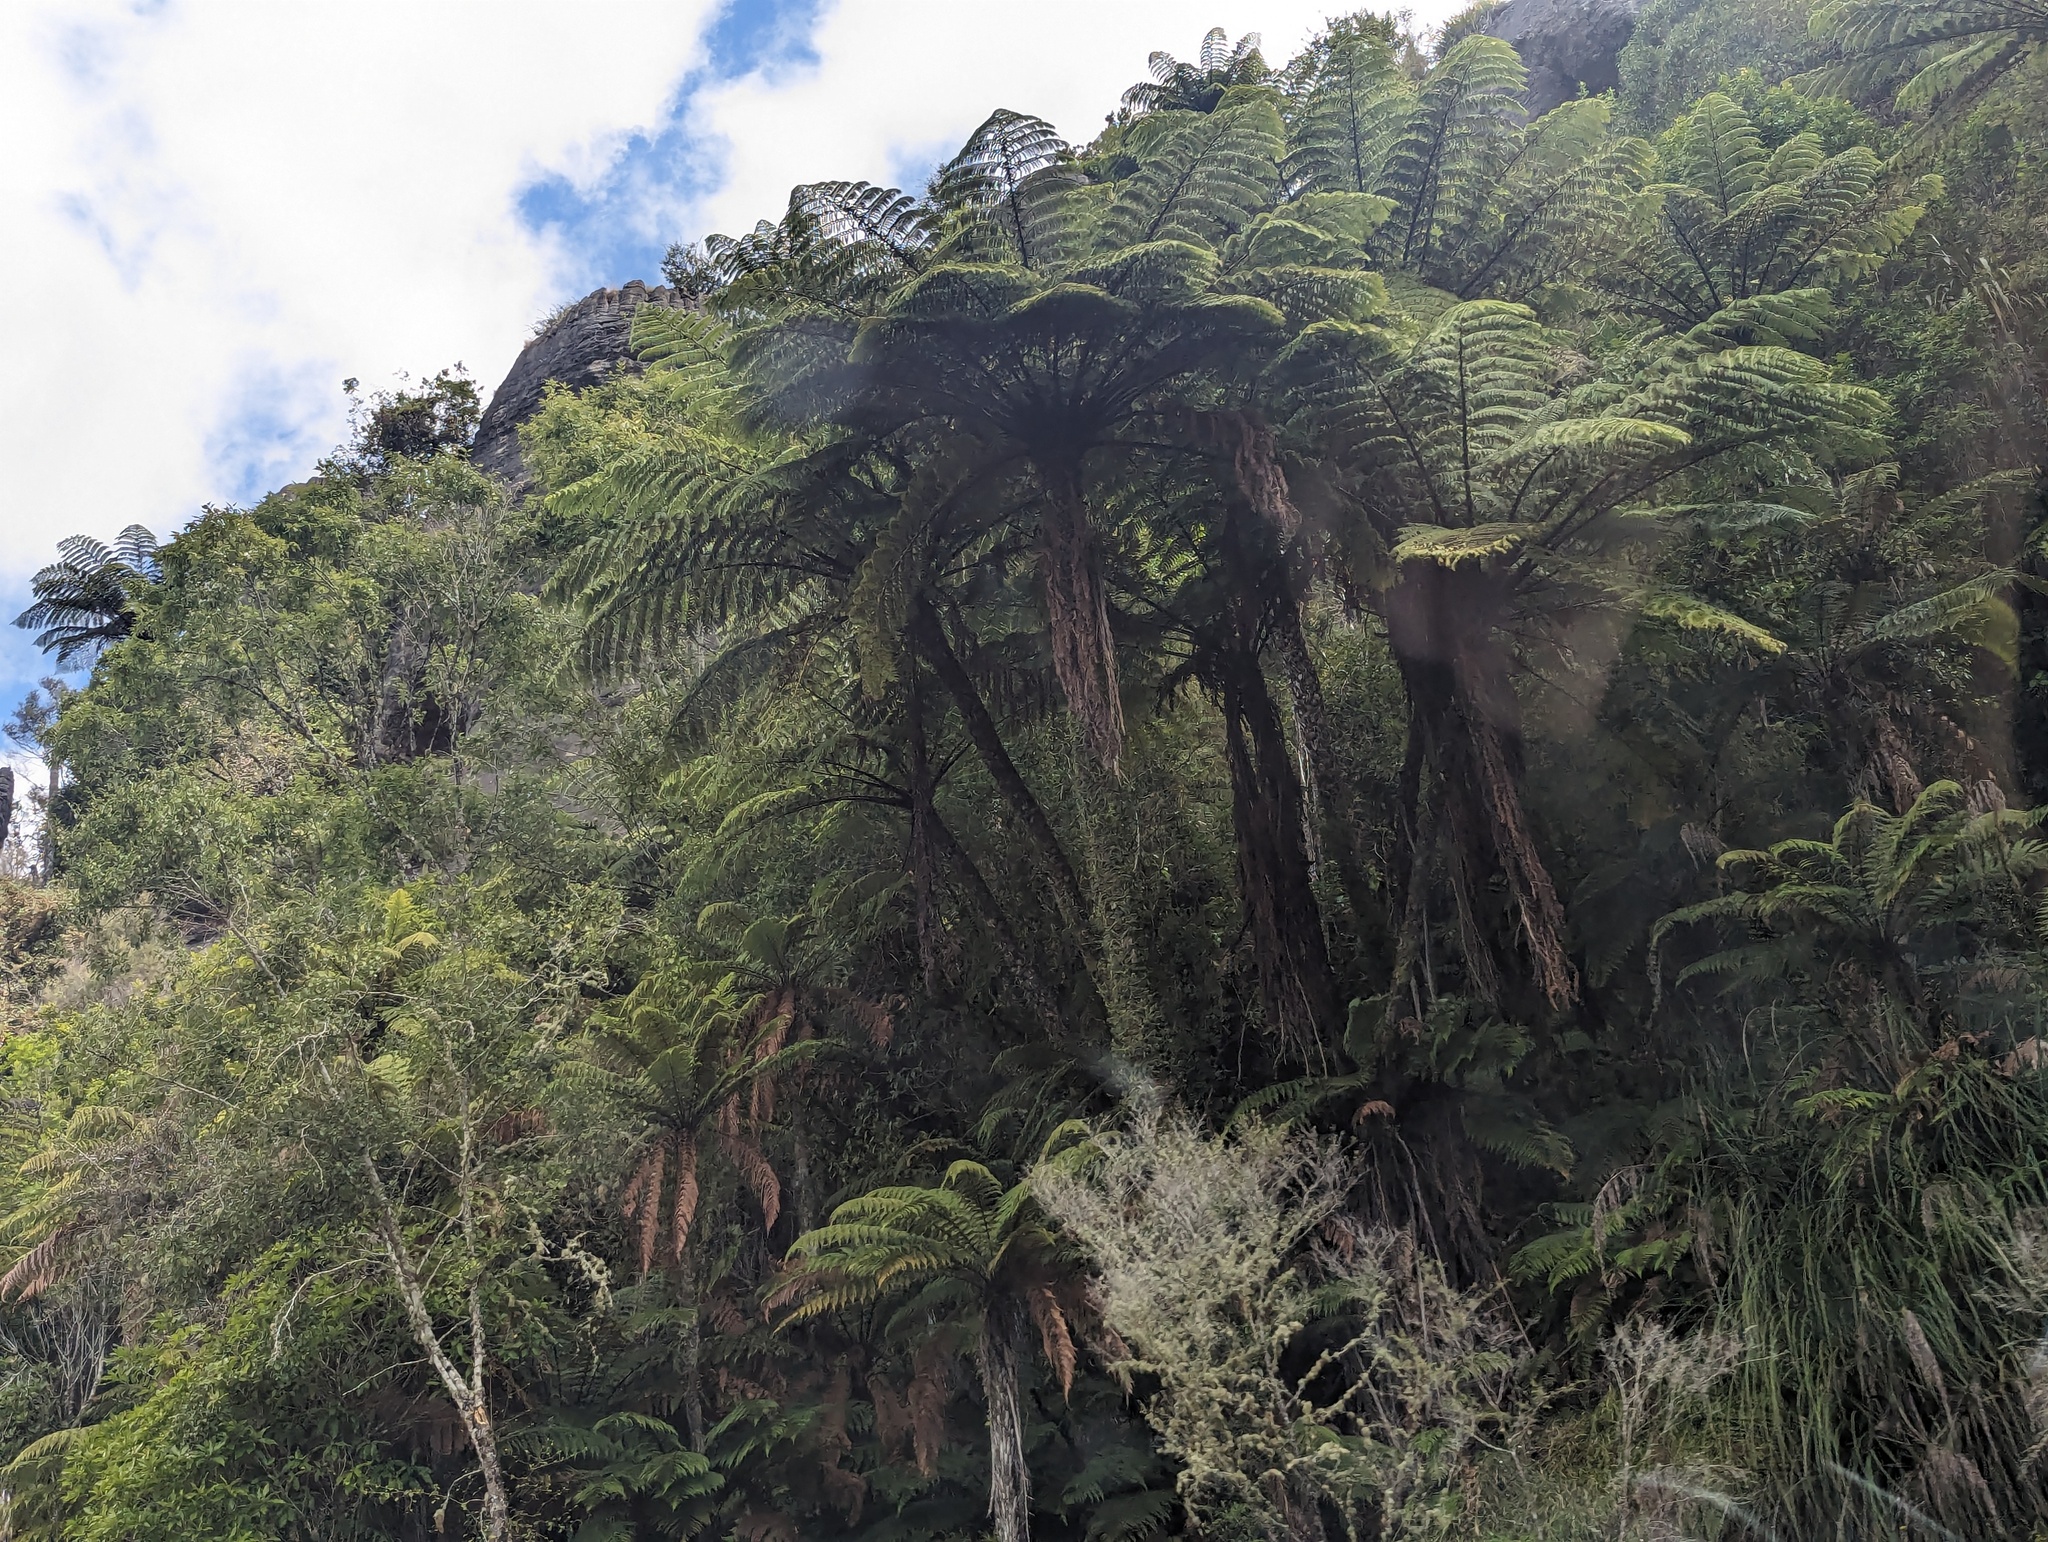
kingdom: Plantae
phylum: Tracheophyta
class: Polypodiopsida
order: Cyatheales
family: Cyatheaceae
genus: Sphaeropteris
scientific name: Sphaeropteris medullaris
